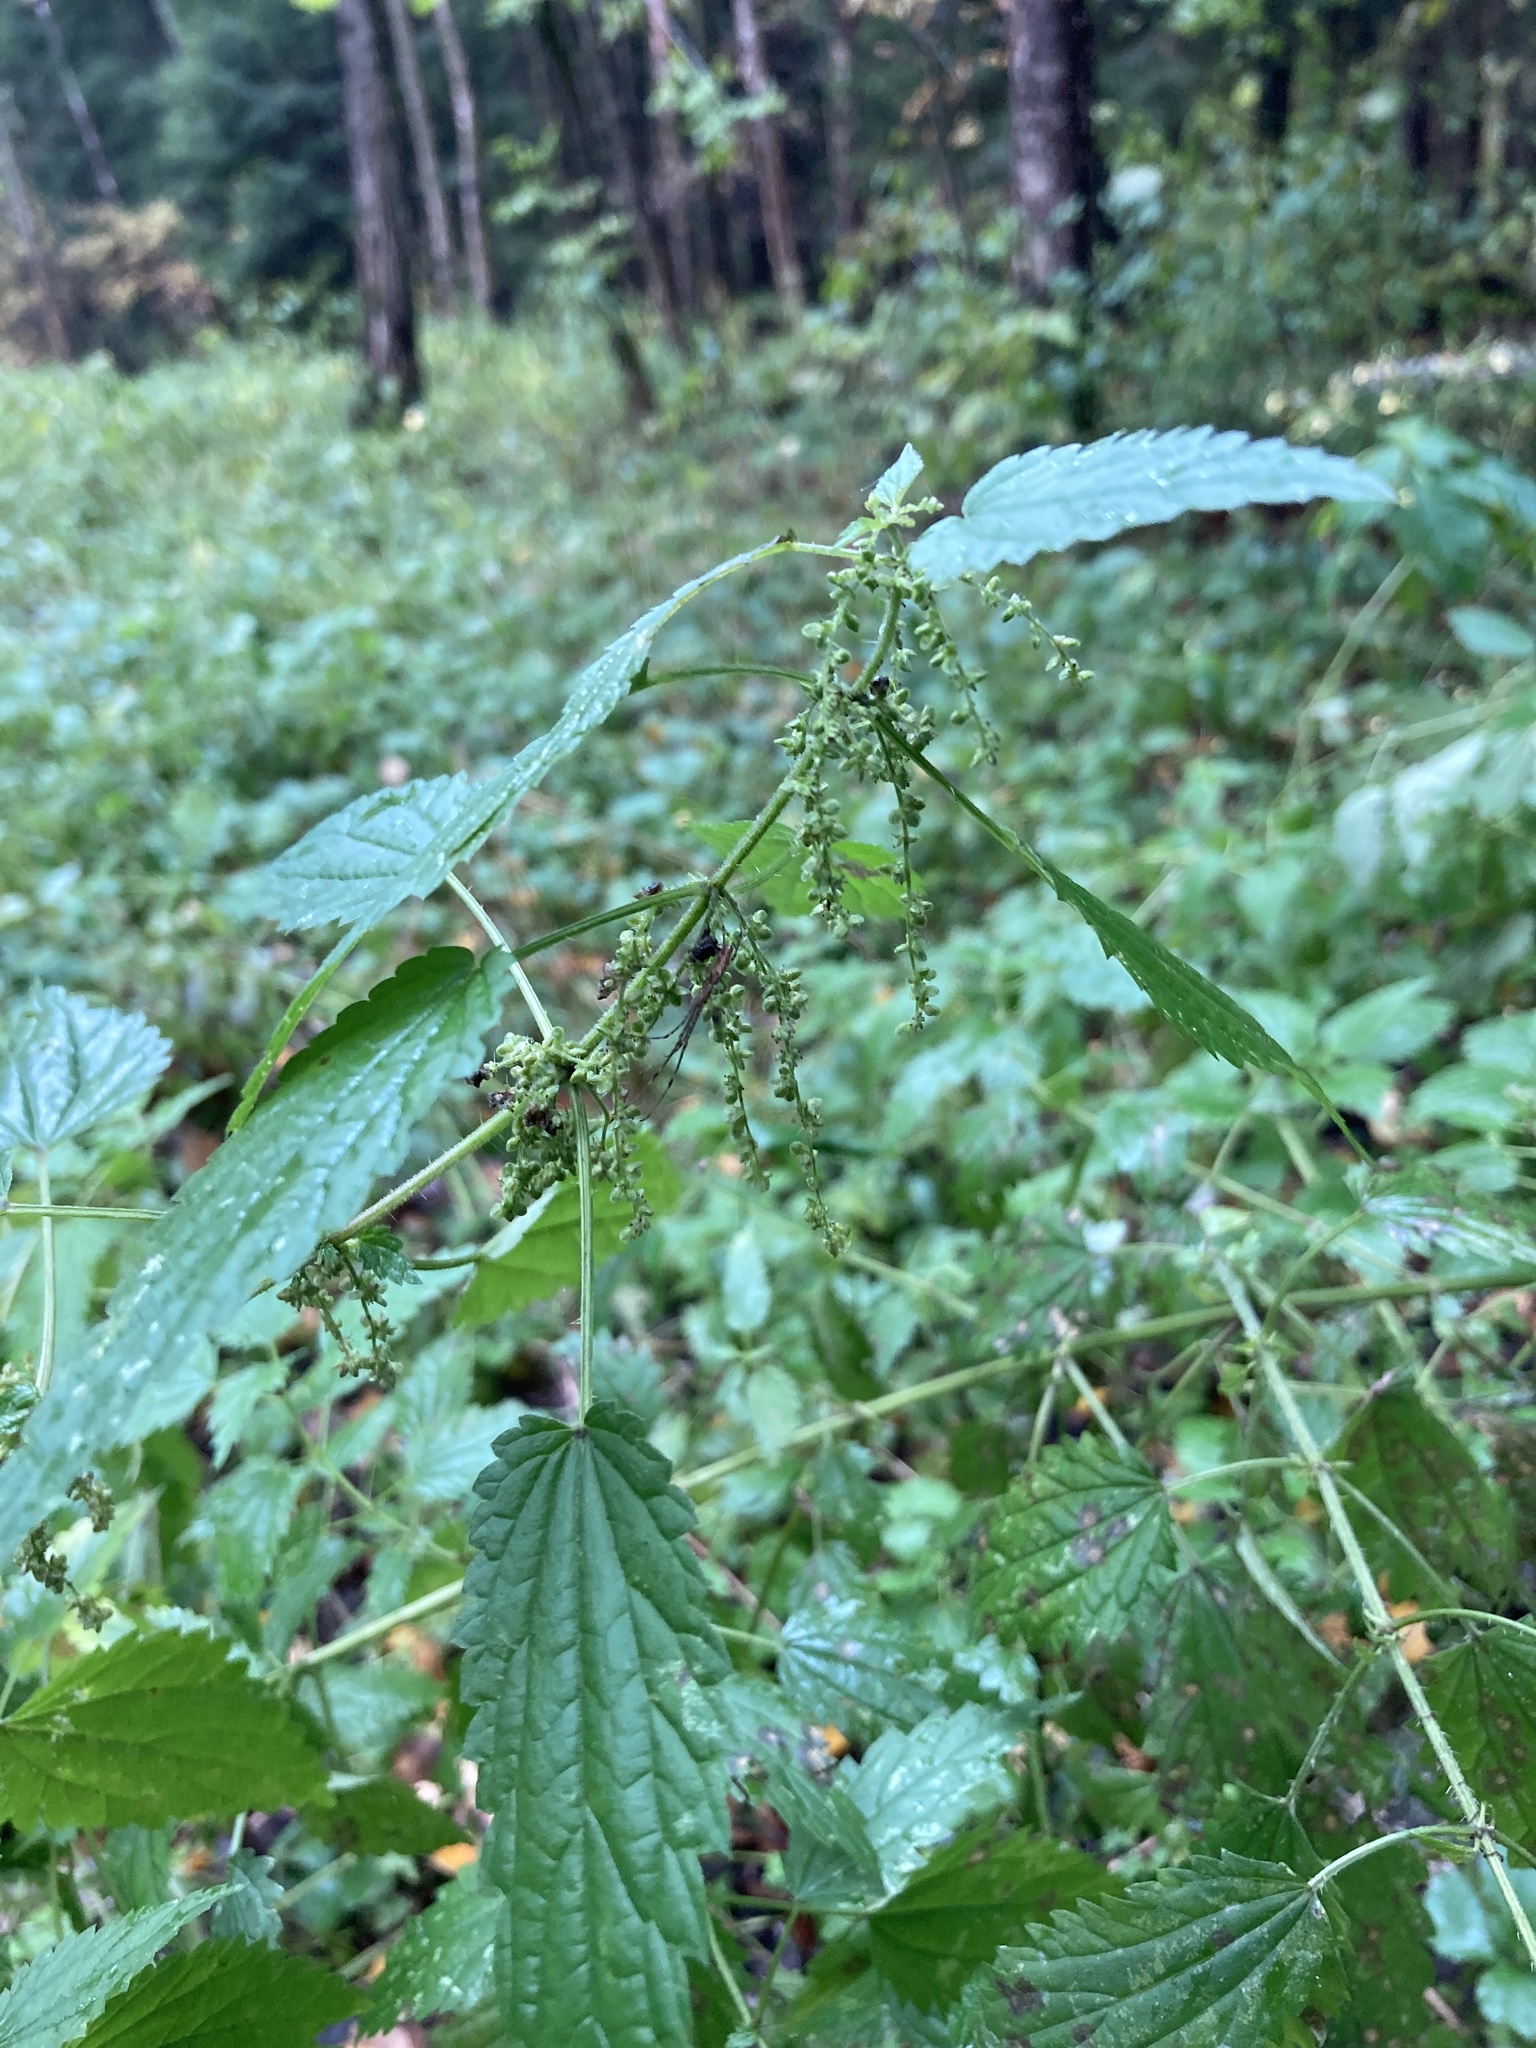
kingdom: Plantae
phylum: Tracheophyta
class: Magnoliopsida
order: Rosales
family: Urticaceae
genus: Urtica
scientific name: Urtica dioica
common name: Common nettle
